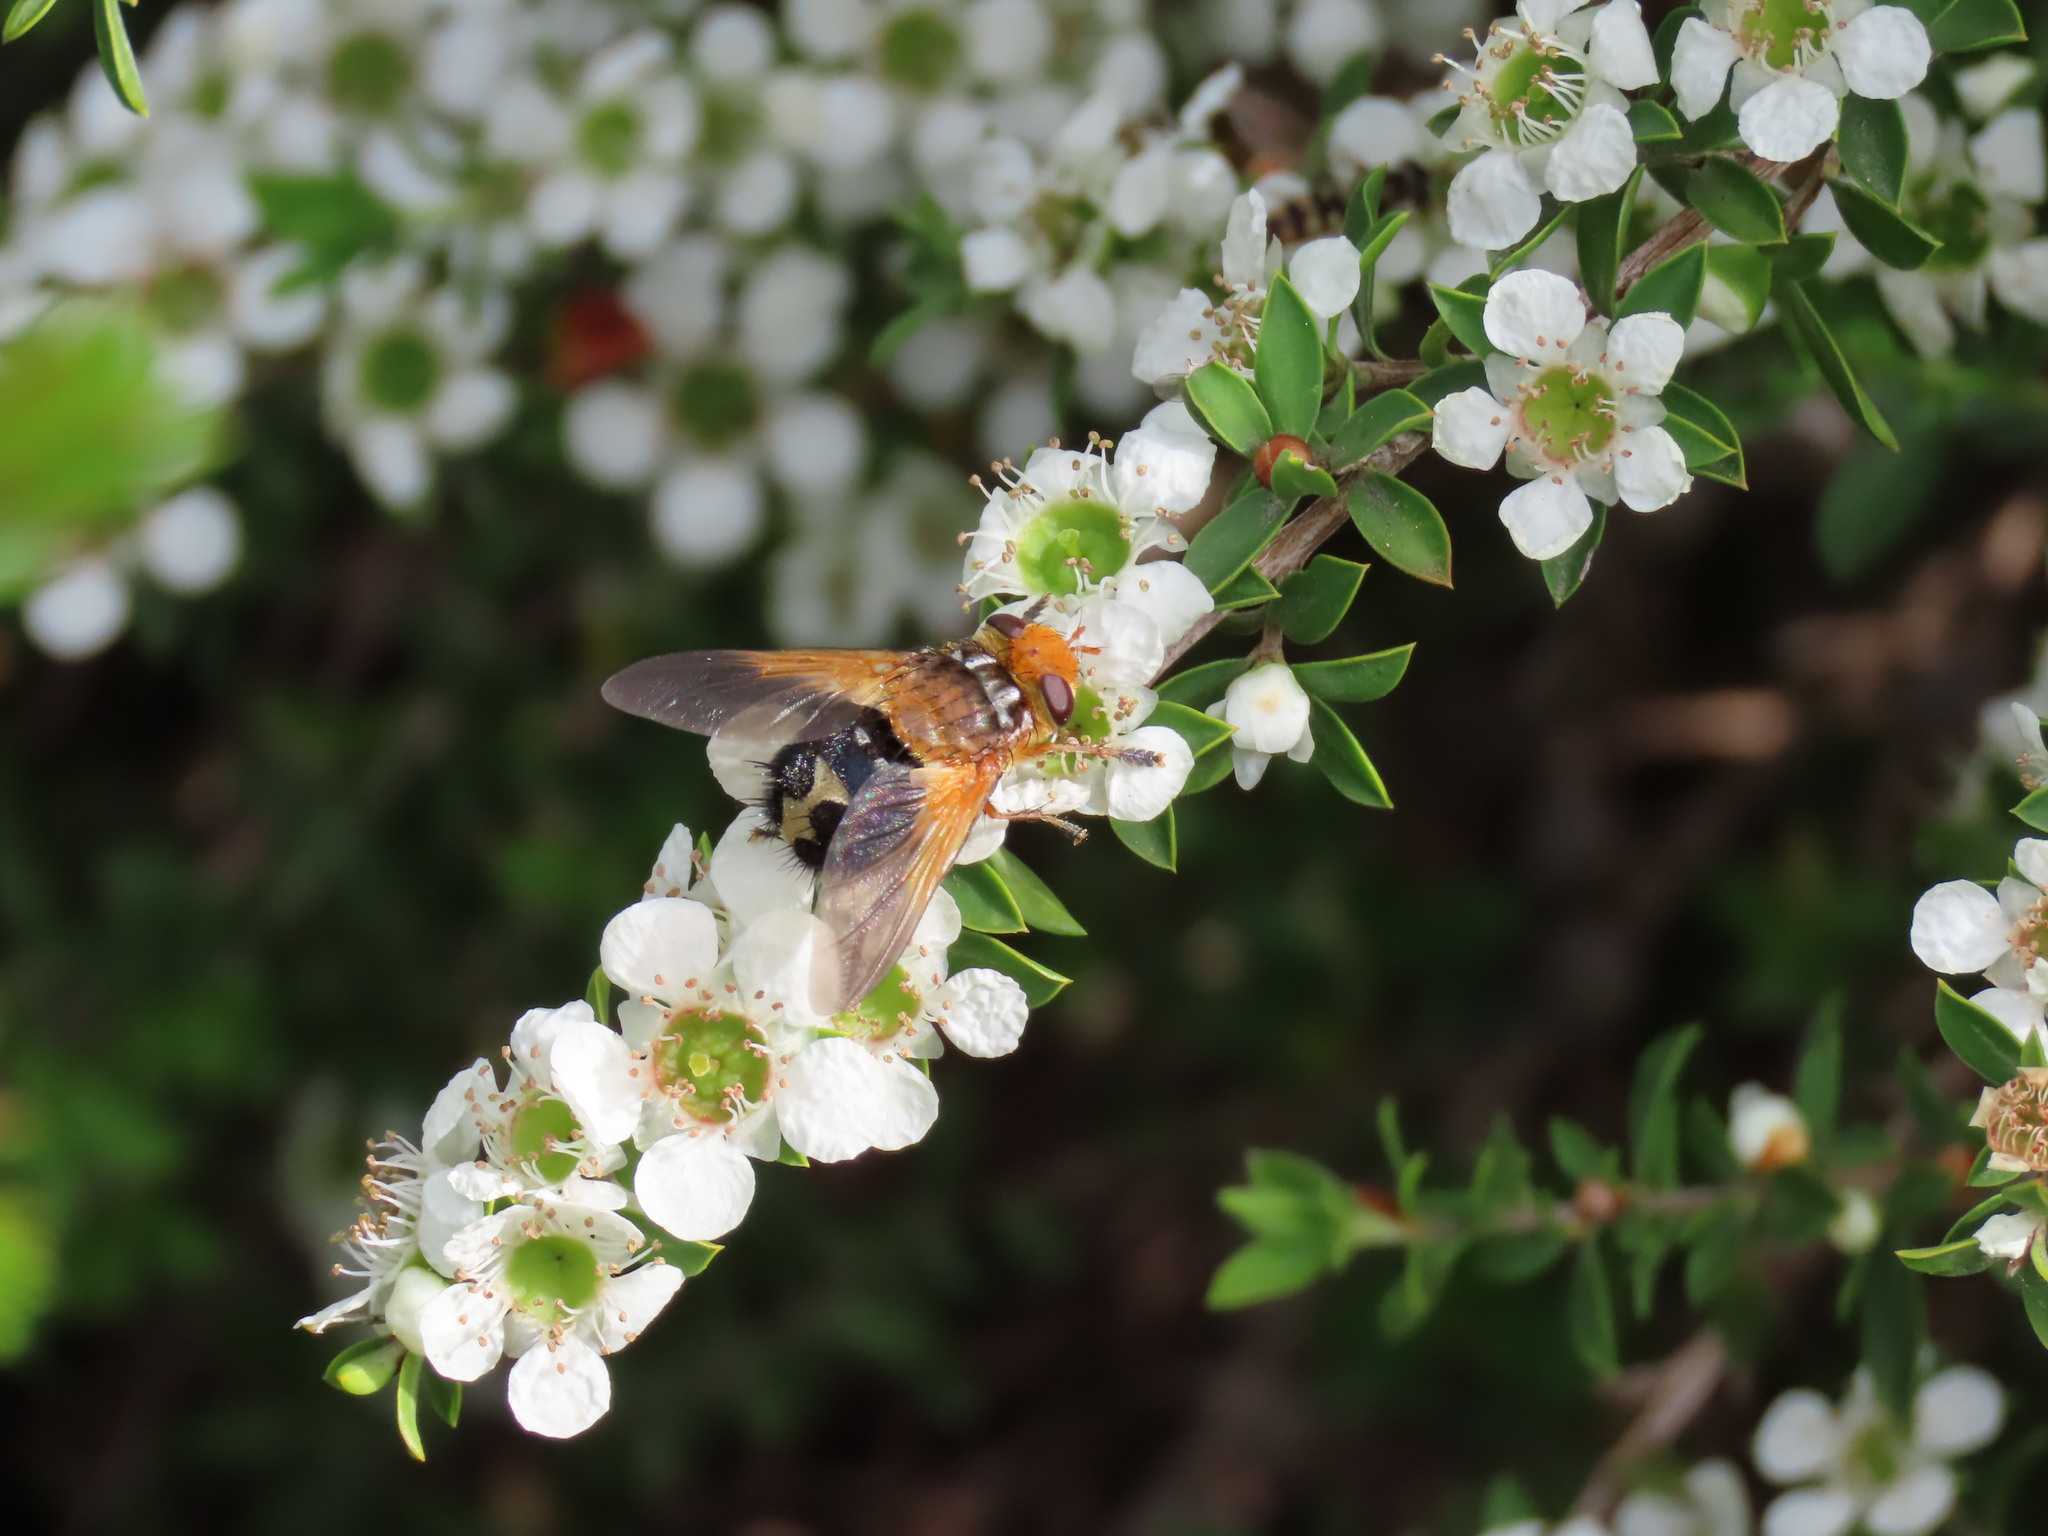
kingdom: Animalia
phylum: Arthropoda
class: Insecta
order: Diptera
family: Tachinidae
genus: Microtropesa
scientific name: Microtropesa sinuata
